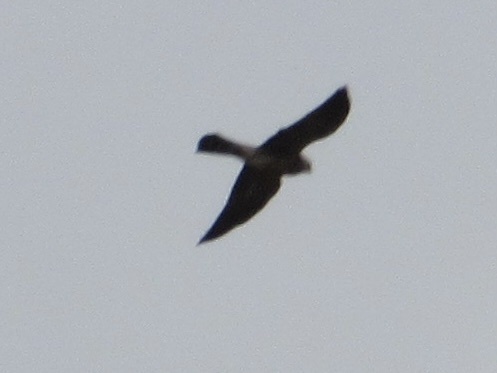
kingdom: Animalia
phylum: Chordata
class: Aves
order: Accipitriformes
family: Accipitridae
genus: Ictinia
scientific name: Ictinia mississippiensis
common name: Mississippi kite
